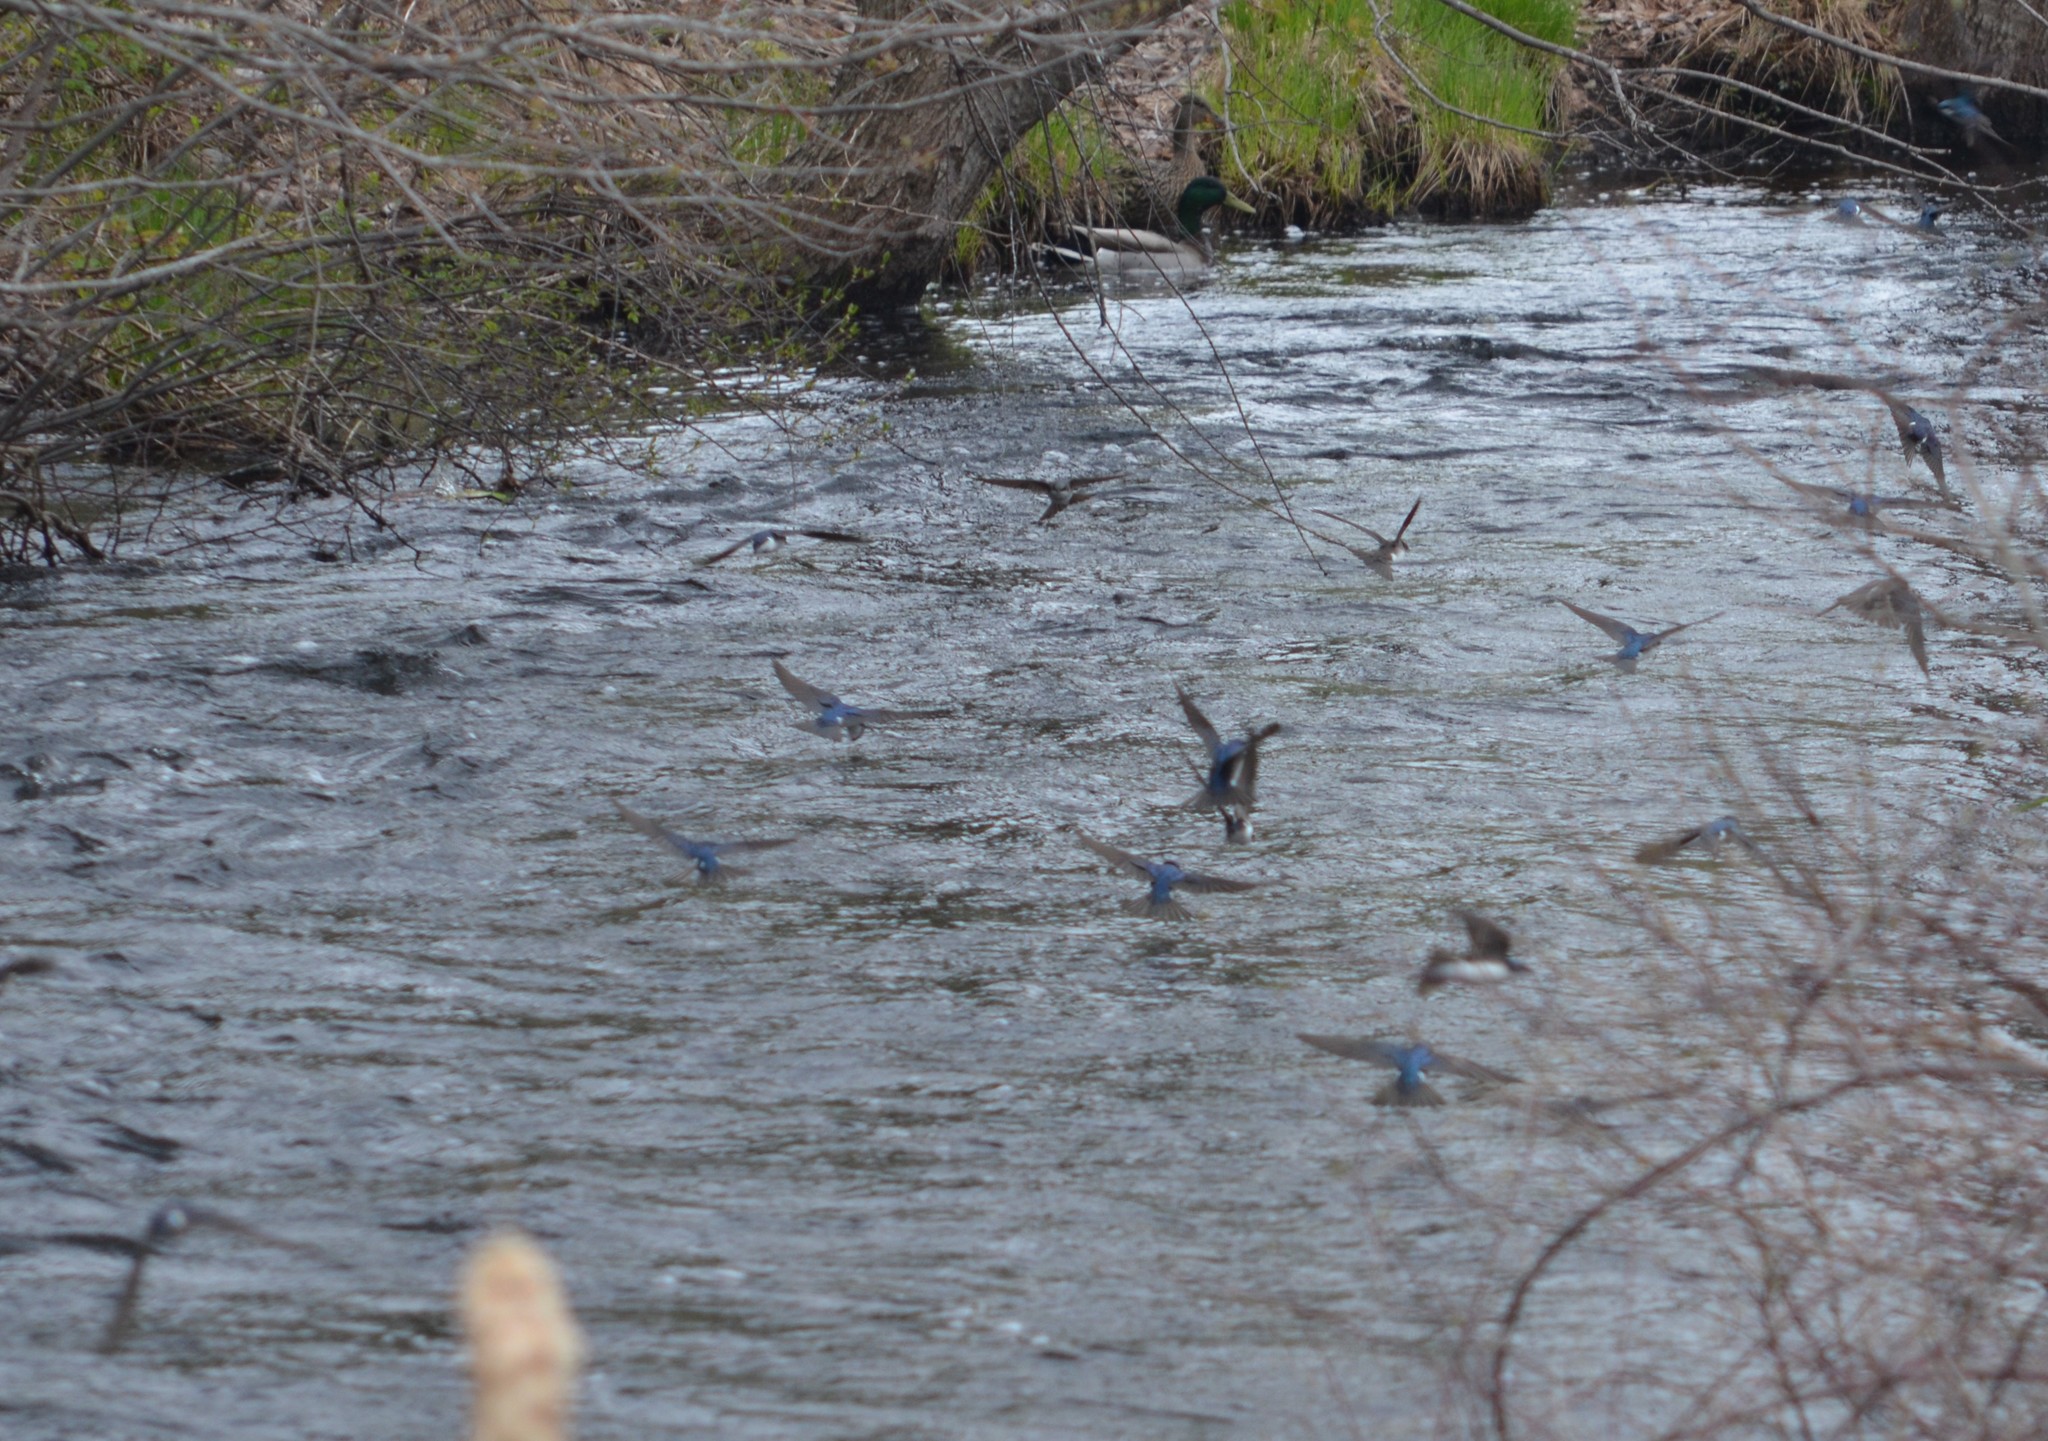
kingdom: Animalia
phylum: Chordata
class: Aves
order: Passeriformes
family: Hirundinidae
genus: Tachycineta
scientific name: Tachycineta bicolor
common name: Tree swallow
